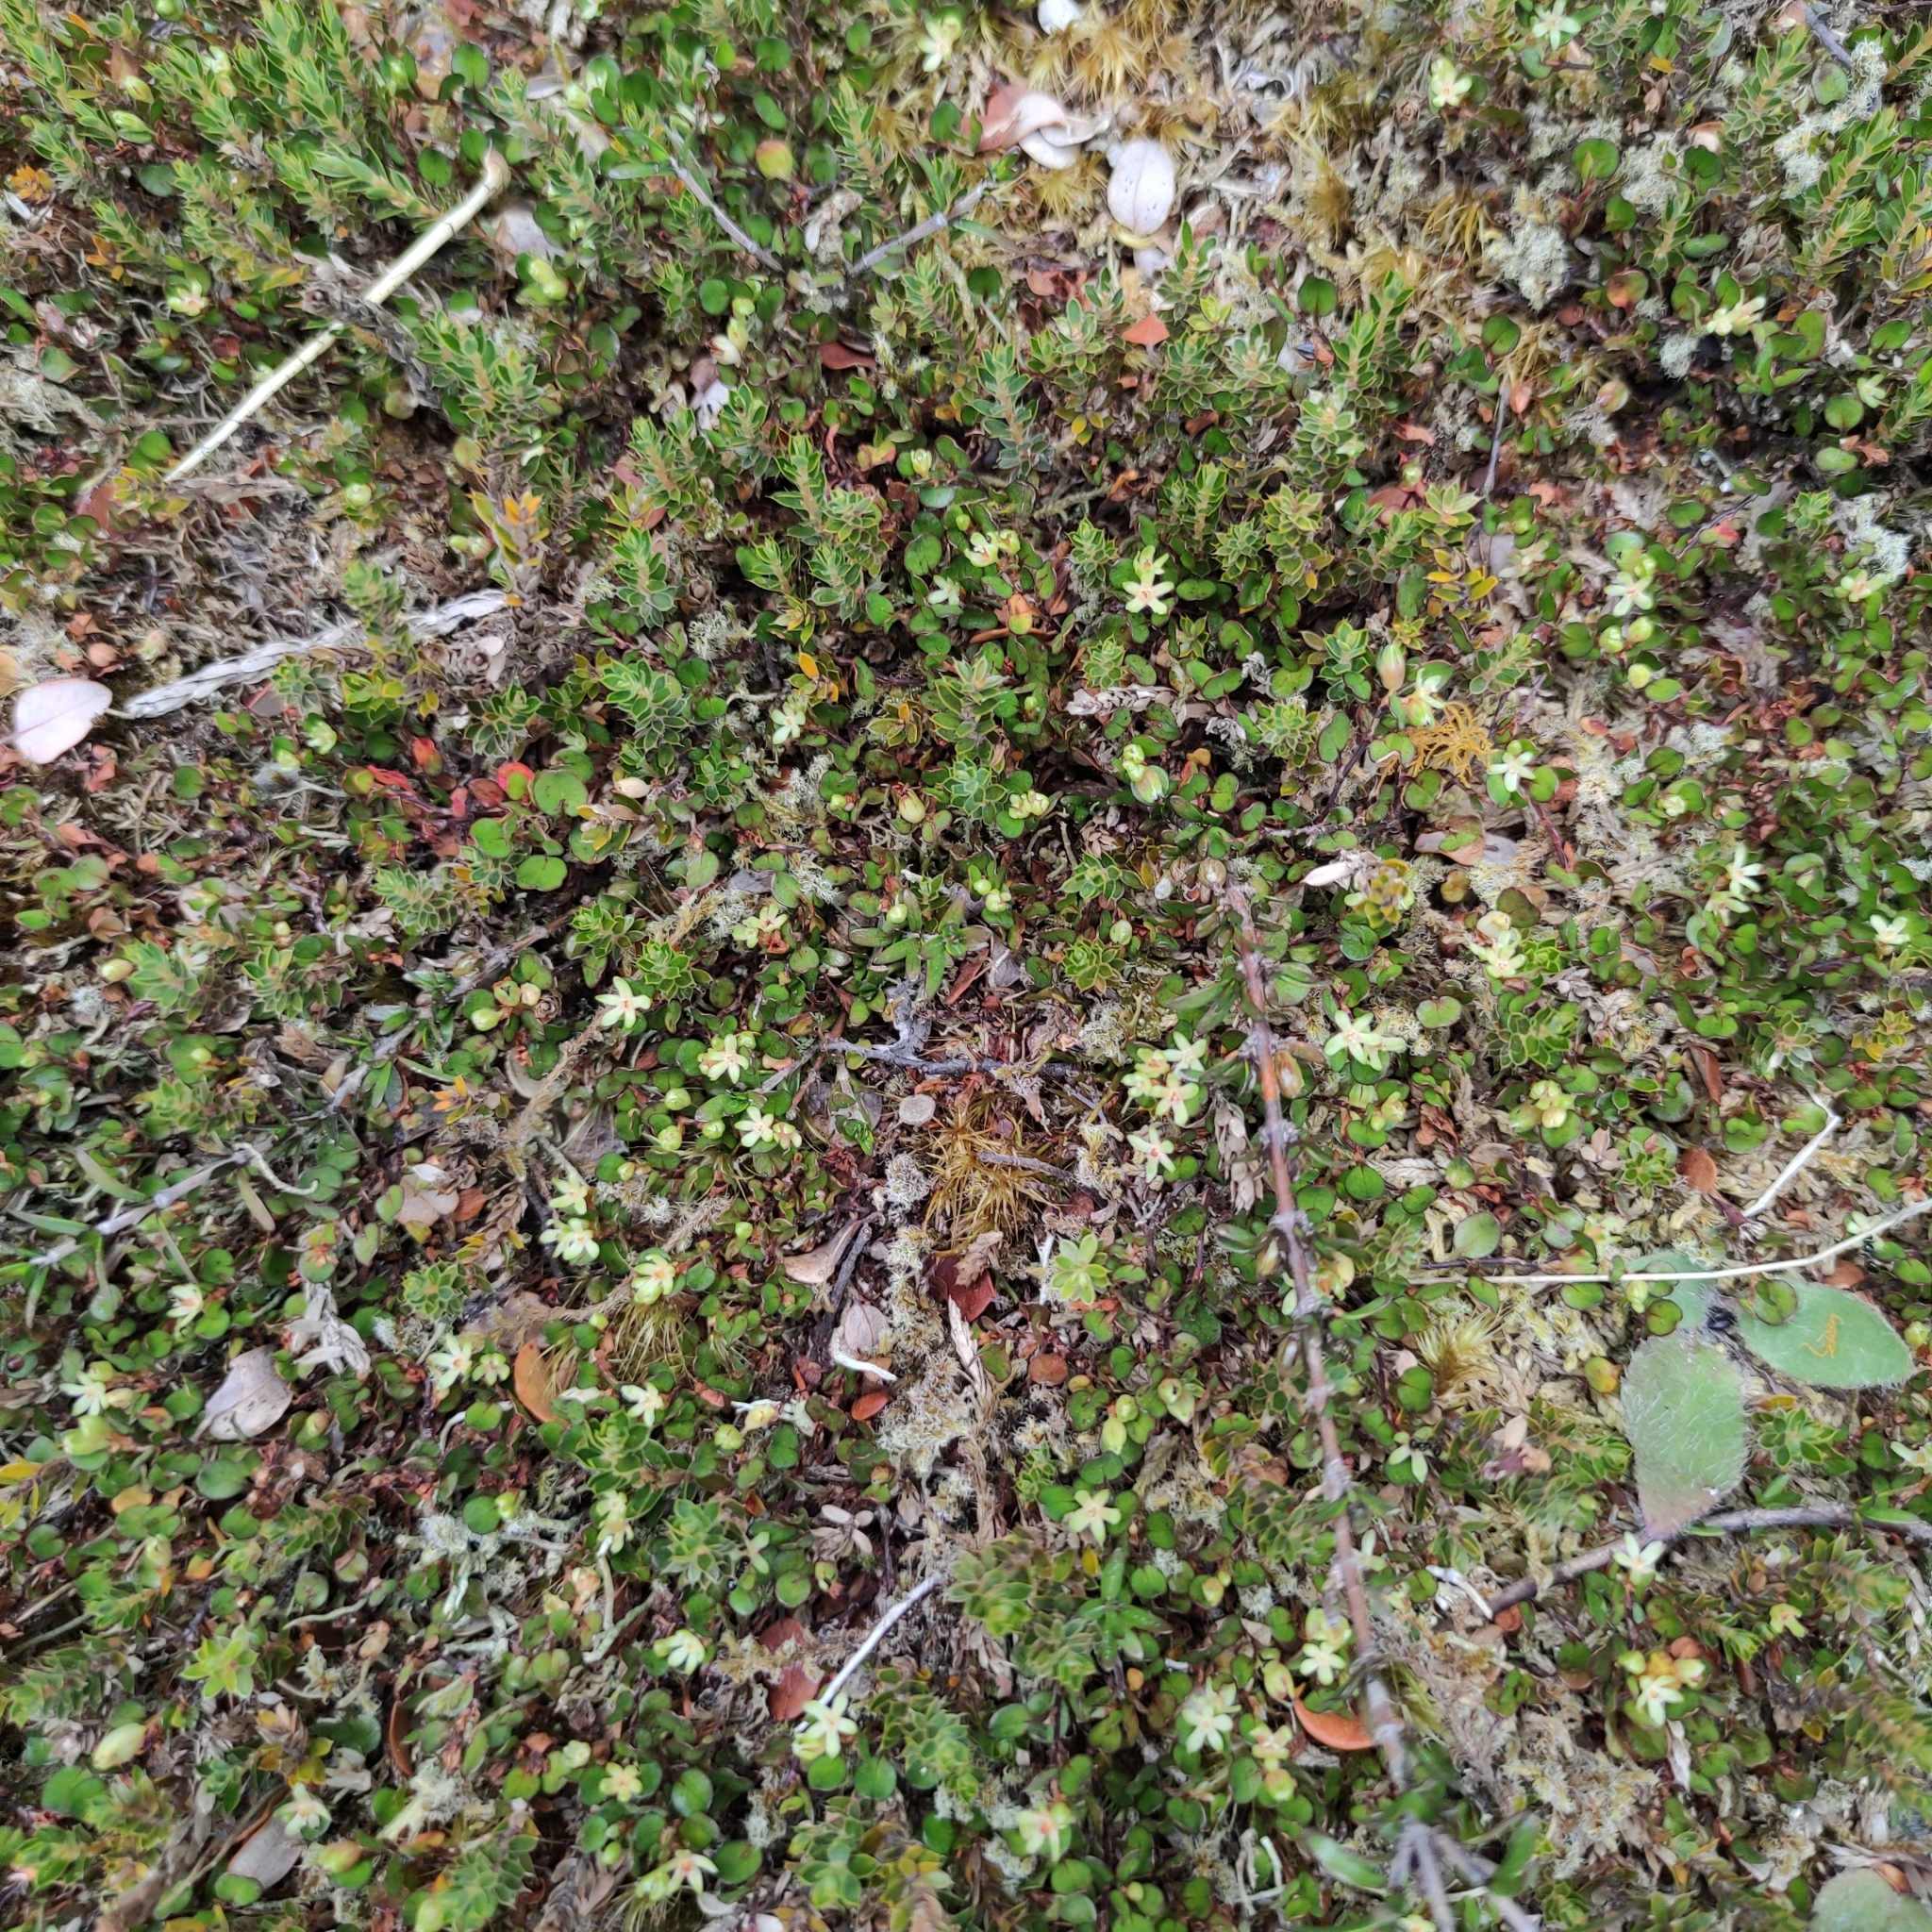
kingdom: Plantae
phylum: Tracheophyta
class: Magnoliopsida
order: Caryophyllales
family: Polygonaceae
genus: Muehlenbeckia
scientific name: Muehlenbeckia axillaris
